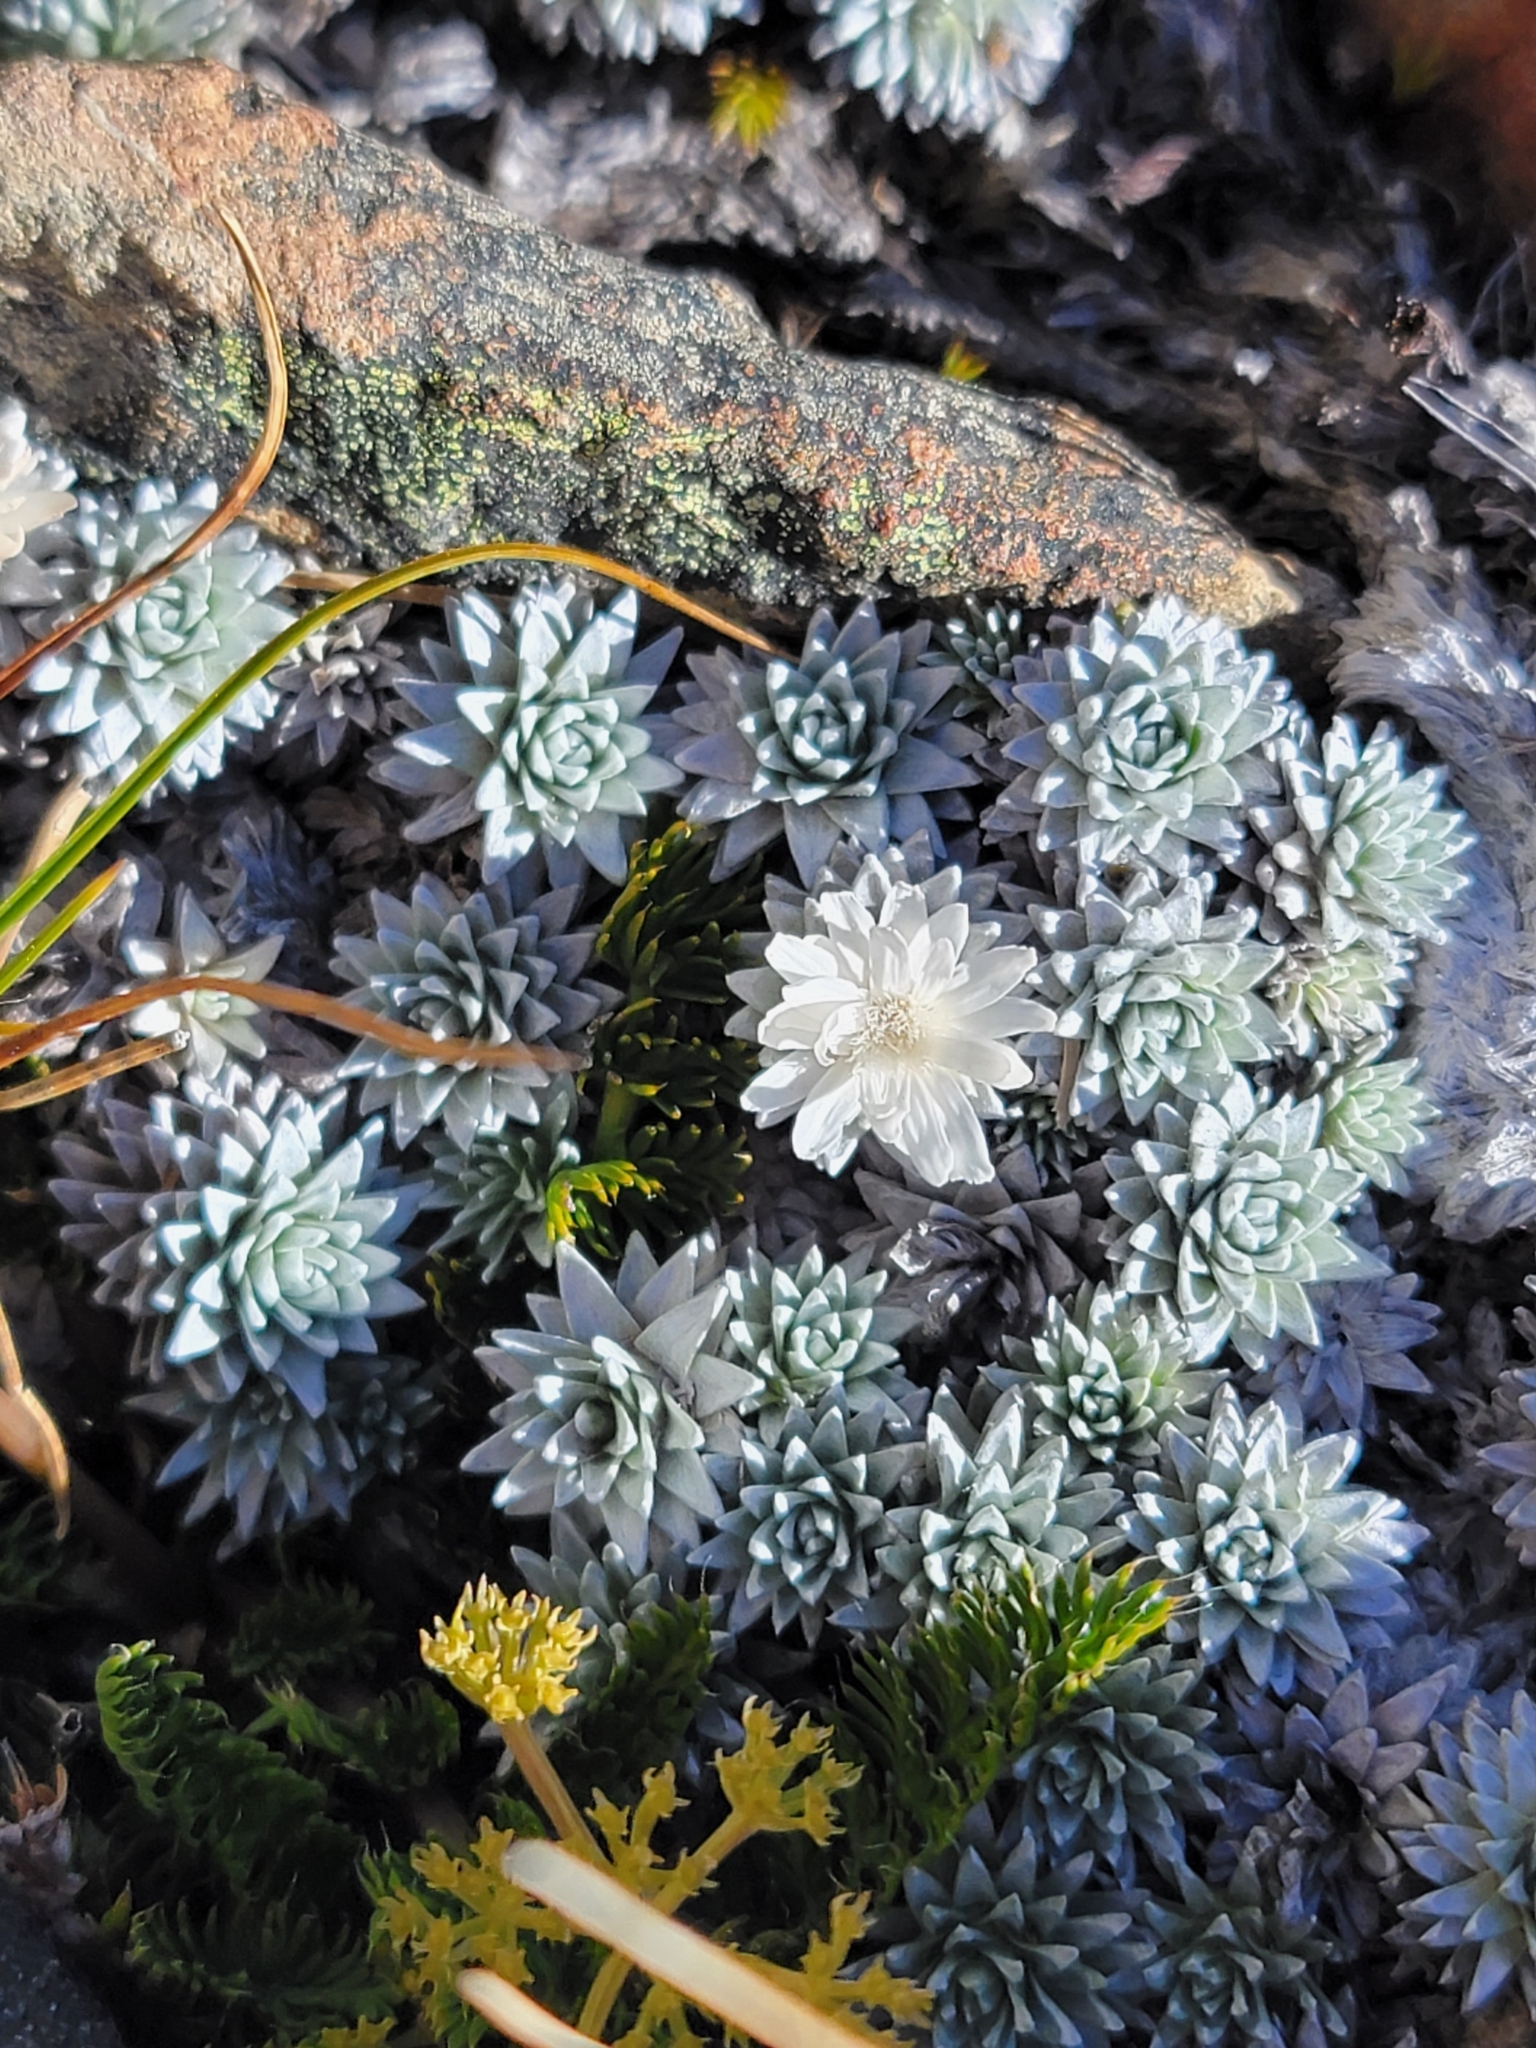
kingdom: Plantae
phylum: Tracheophyta
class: Magnoliopsida
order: Asterales
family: Asteraceae
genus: Raoulia
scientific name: Raoulia grandiflora
